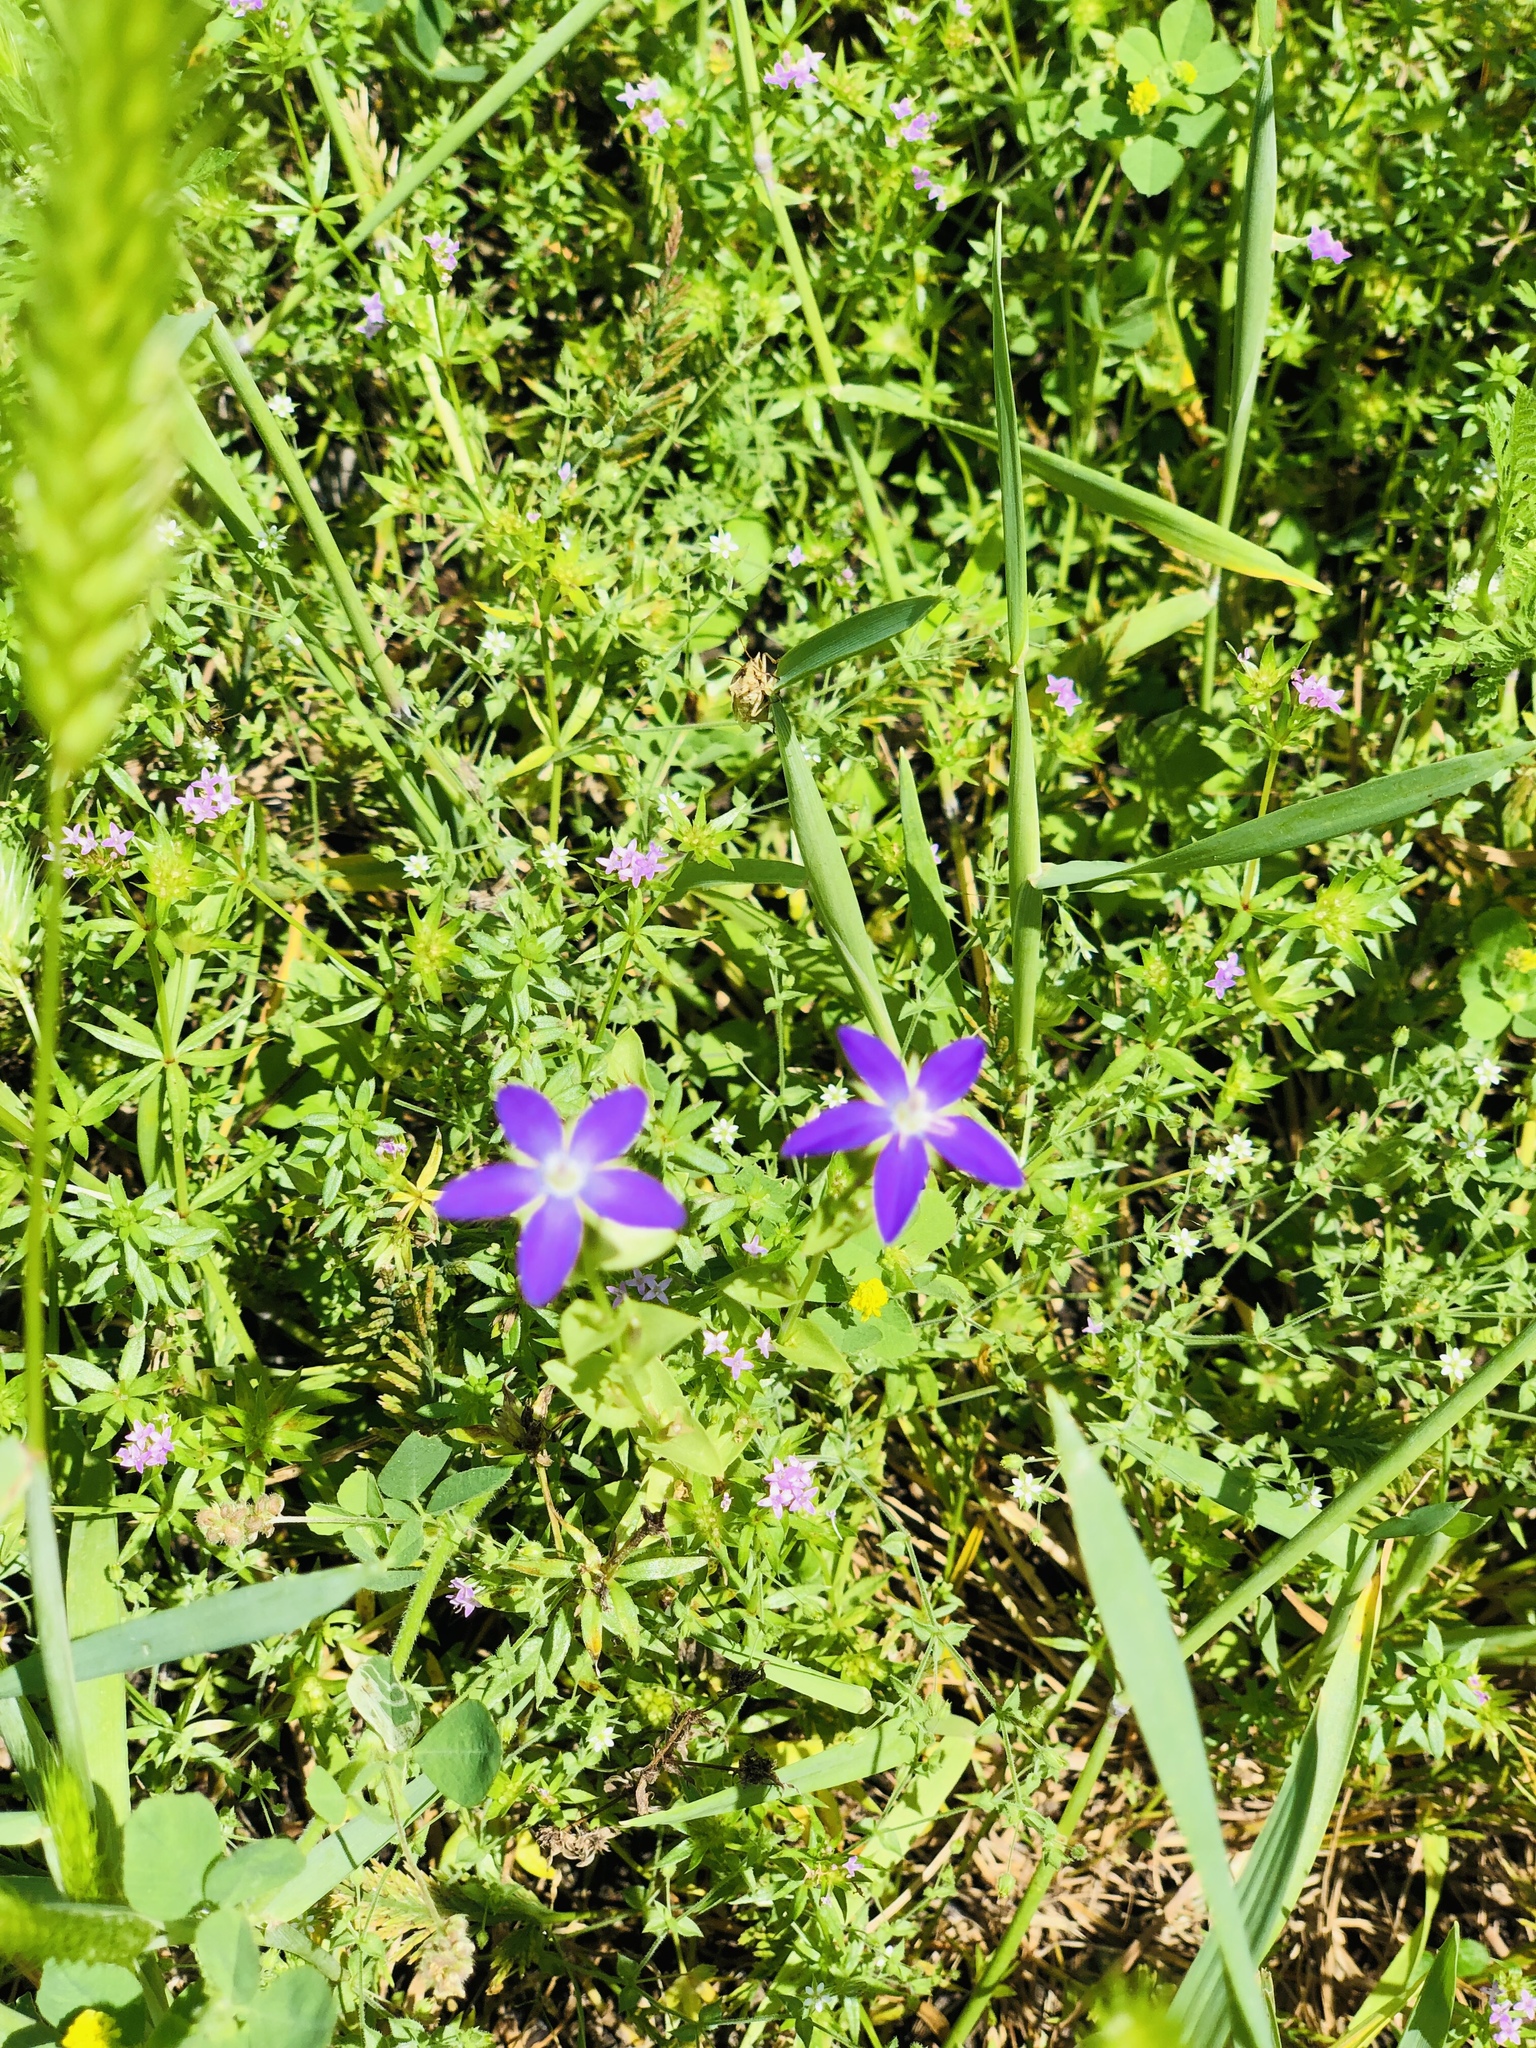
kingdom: Plantae
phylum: Tracheophyta
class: Magnoliopsida
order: Asterales
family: Campanulaceae
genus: Triodanis
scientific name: Triodanis biflora
